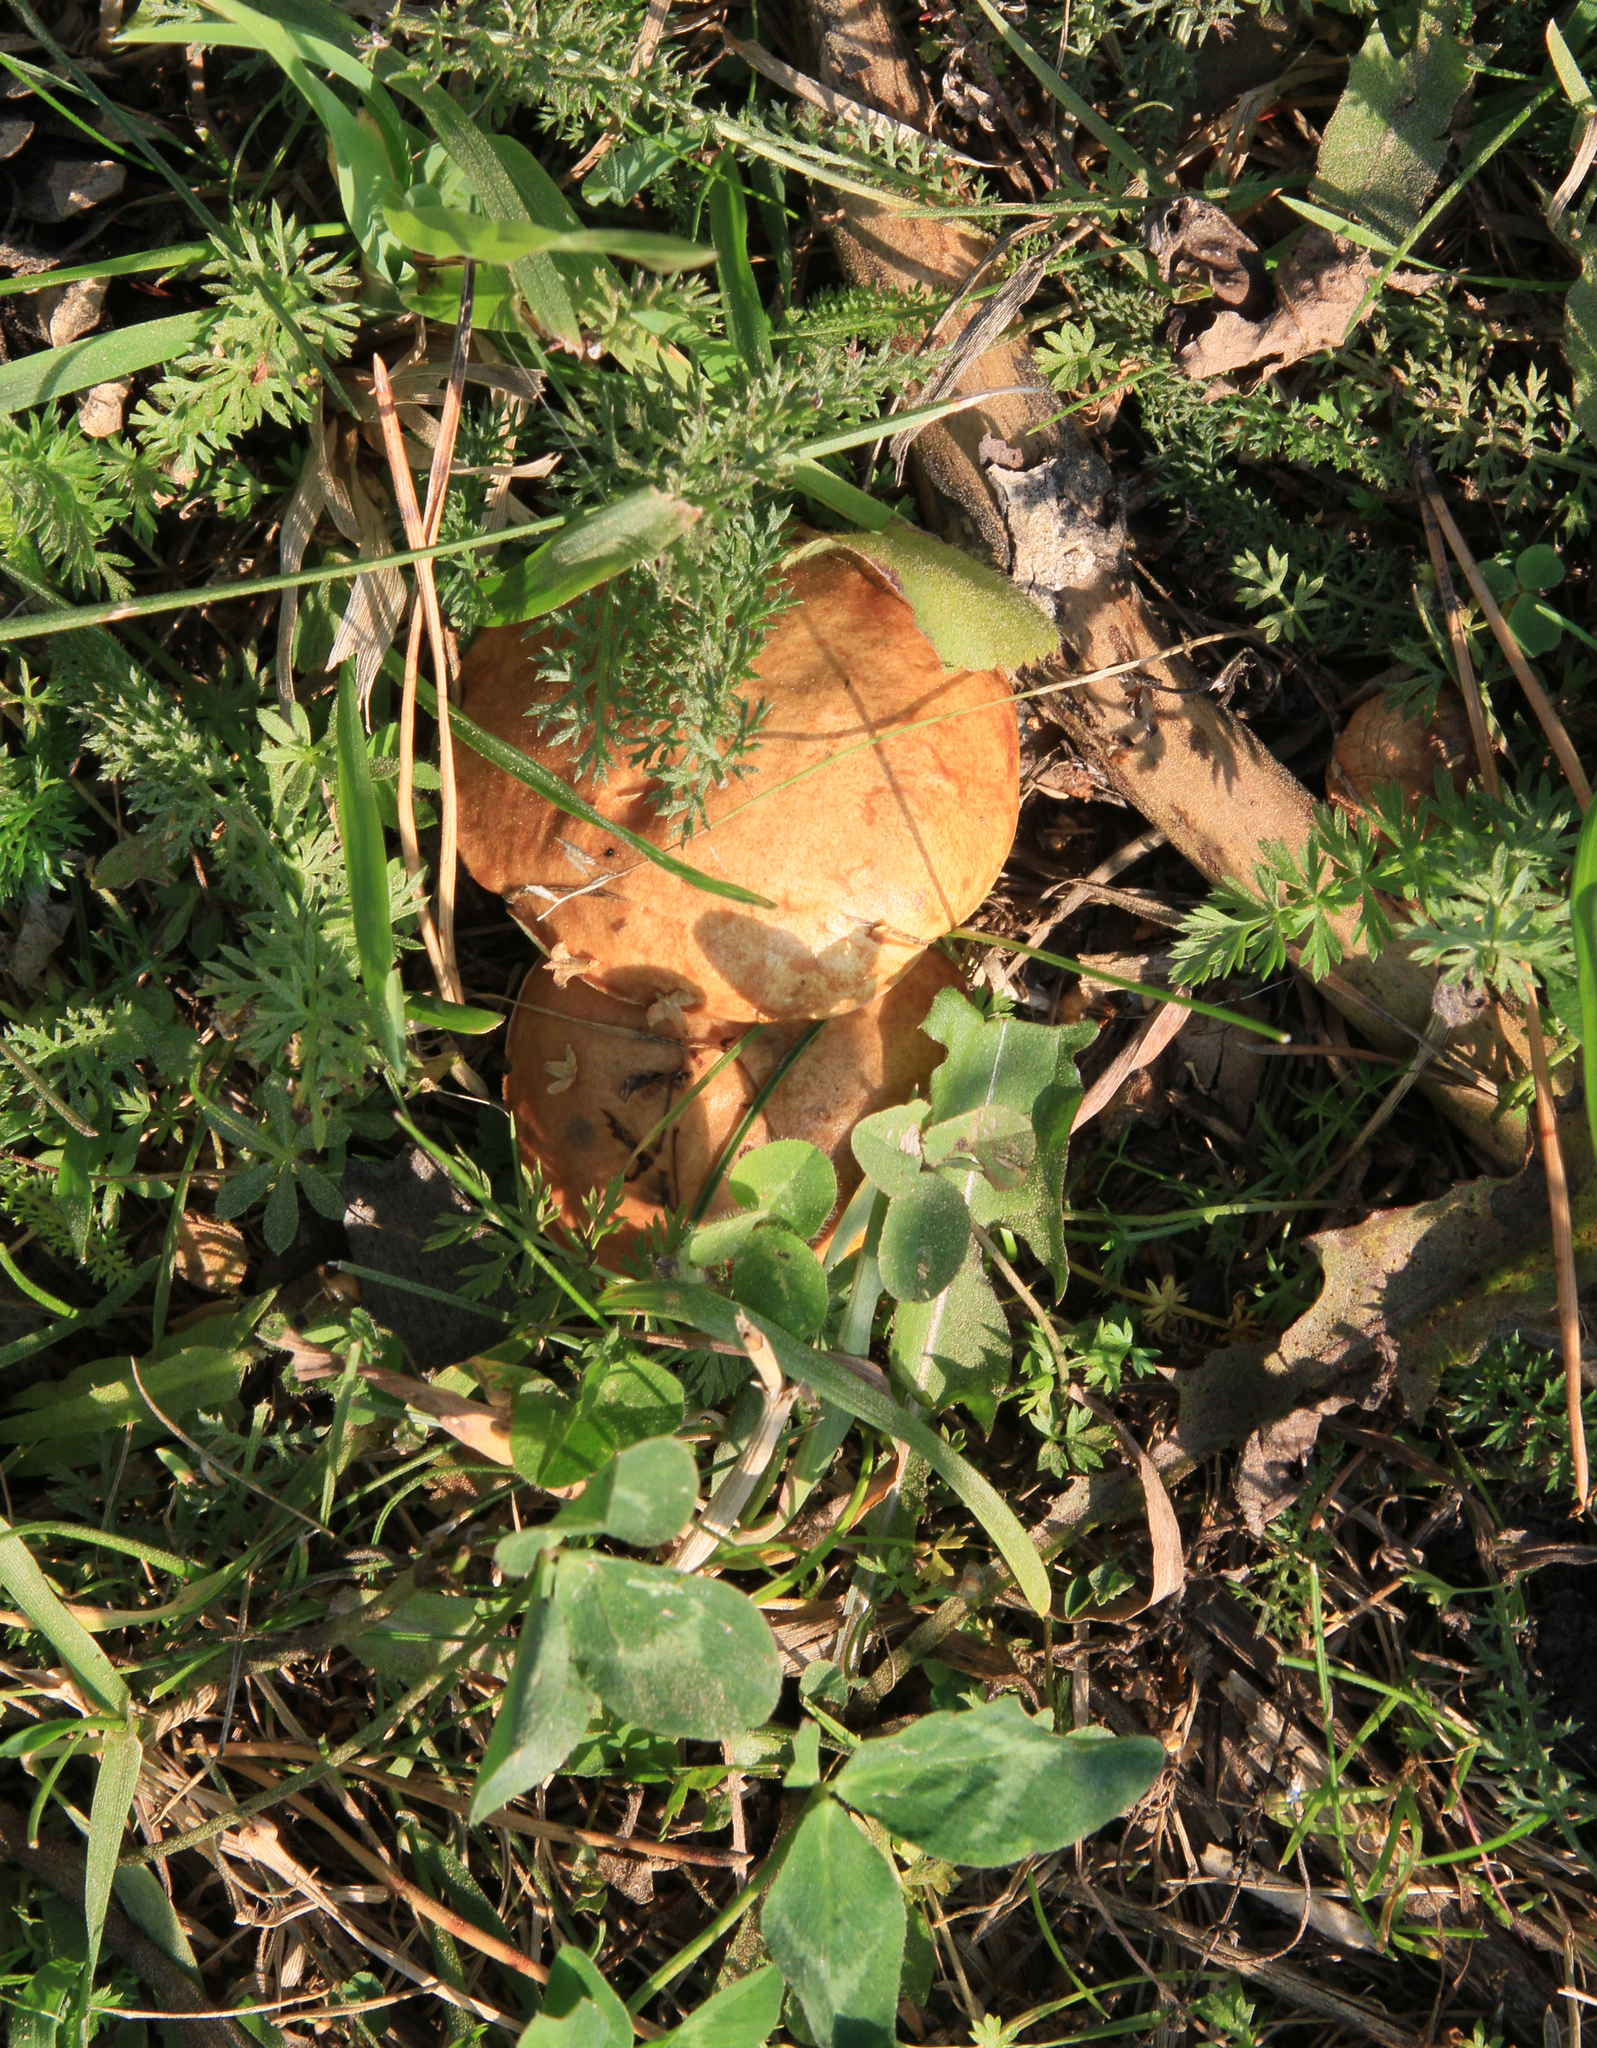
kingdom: Fungi
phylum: Basidiomycota
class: Agaricomycetes
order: Boletales
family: Suillaceae
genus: Suillus
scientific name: Suillus granulatus
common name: Weeping bolete
